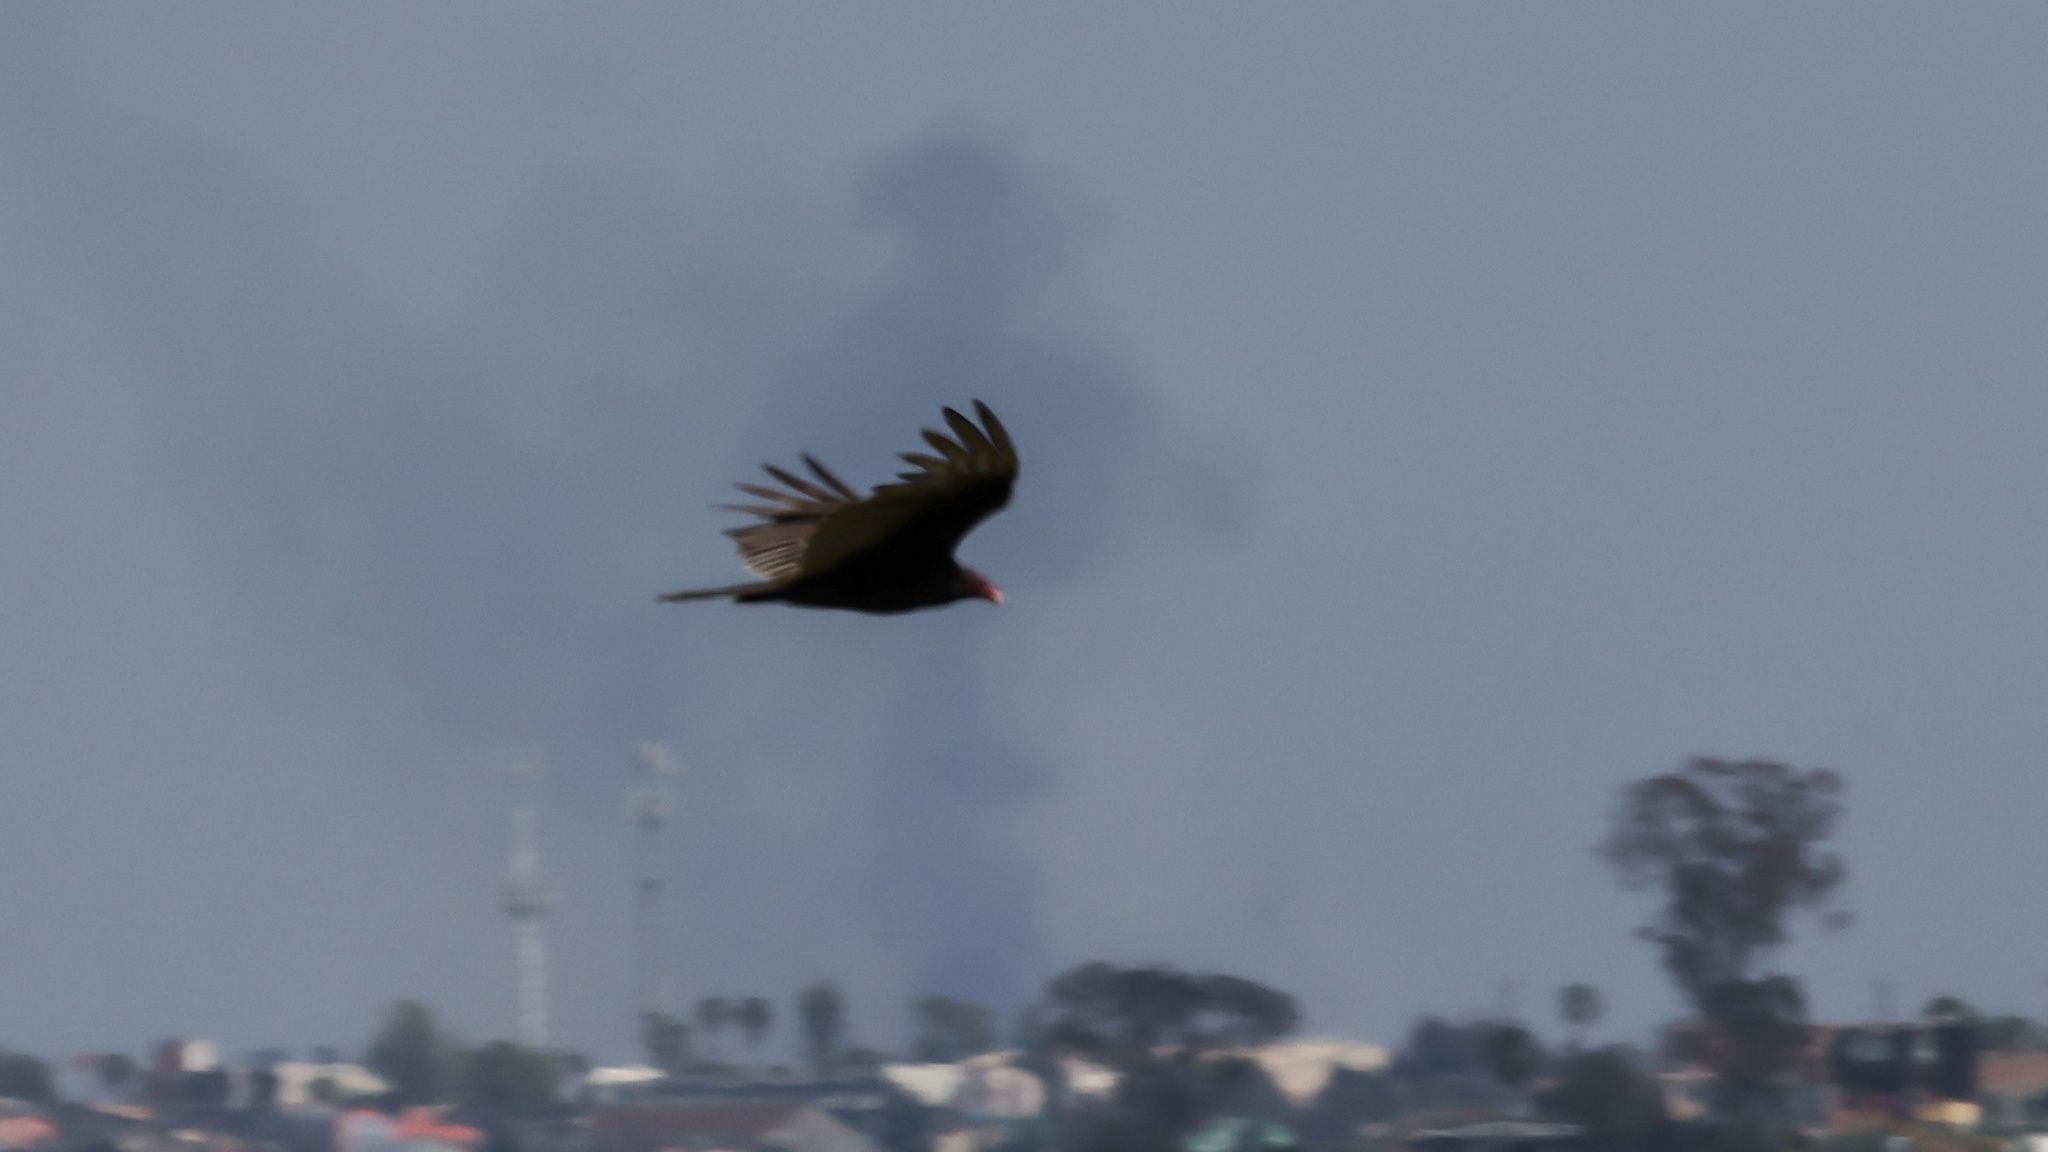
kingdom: Animalia
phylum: Chordata
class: Aves
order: Accipitriformes
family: Cathartidae
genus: Cathartes
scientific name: Cathartes aura
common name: Turkey vulture
